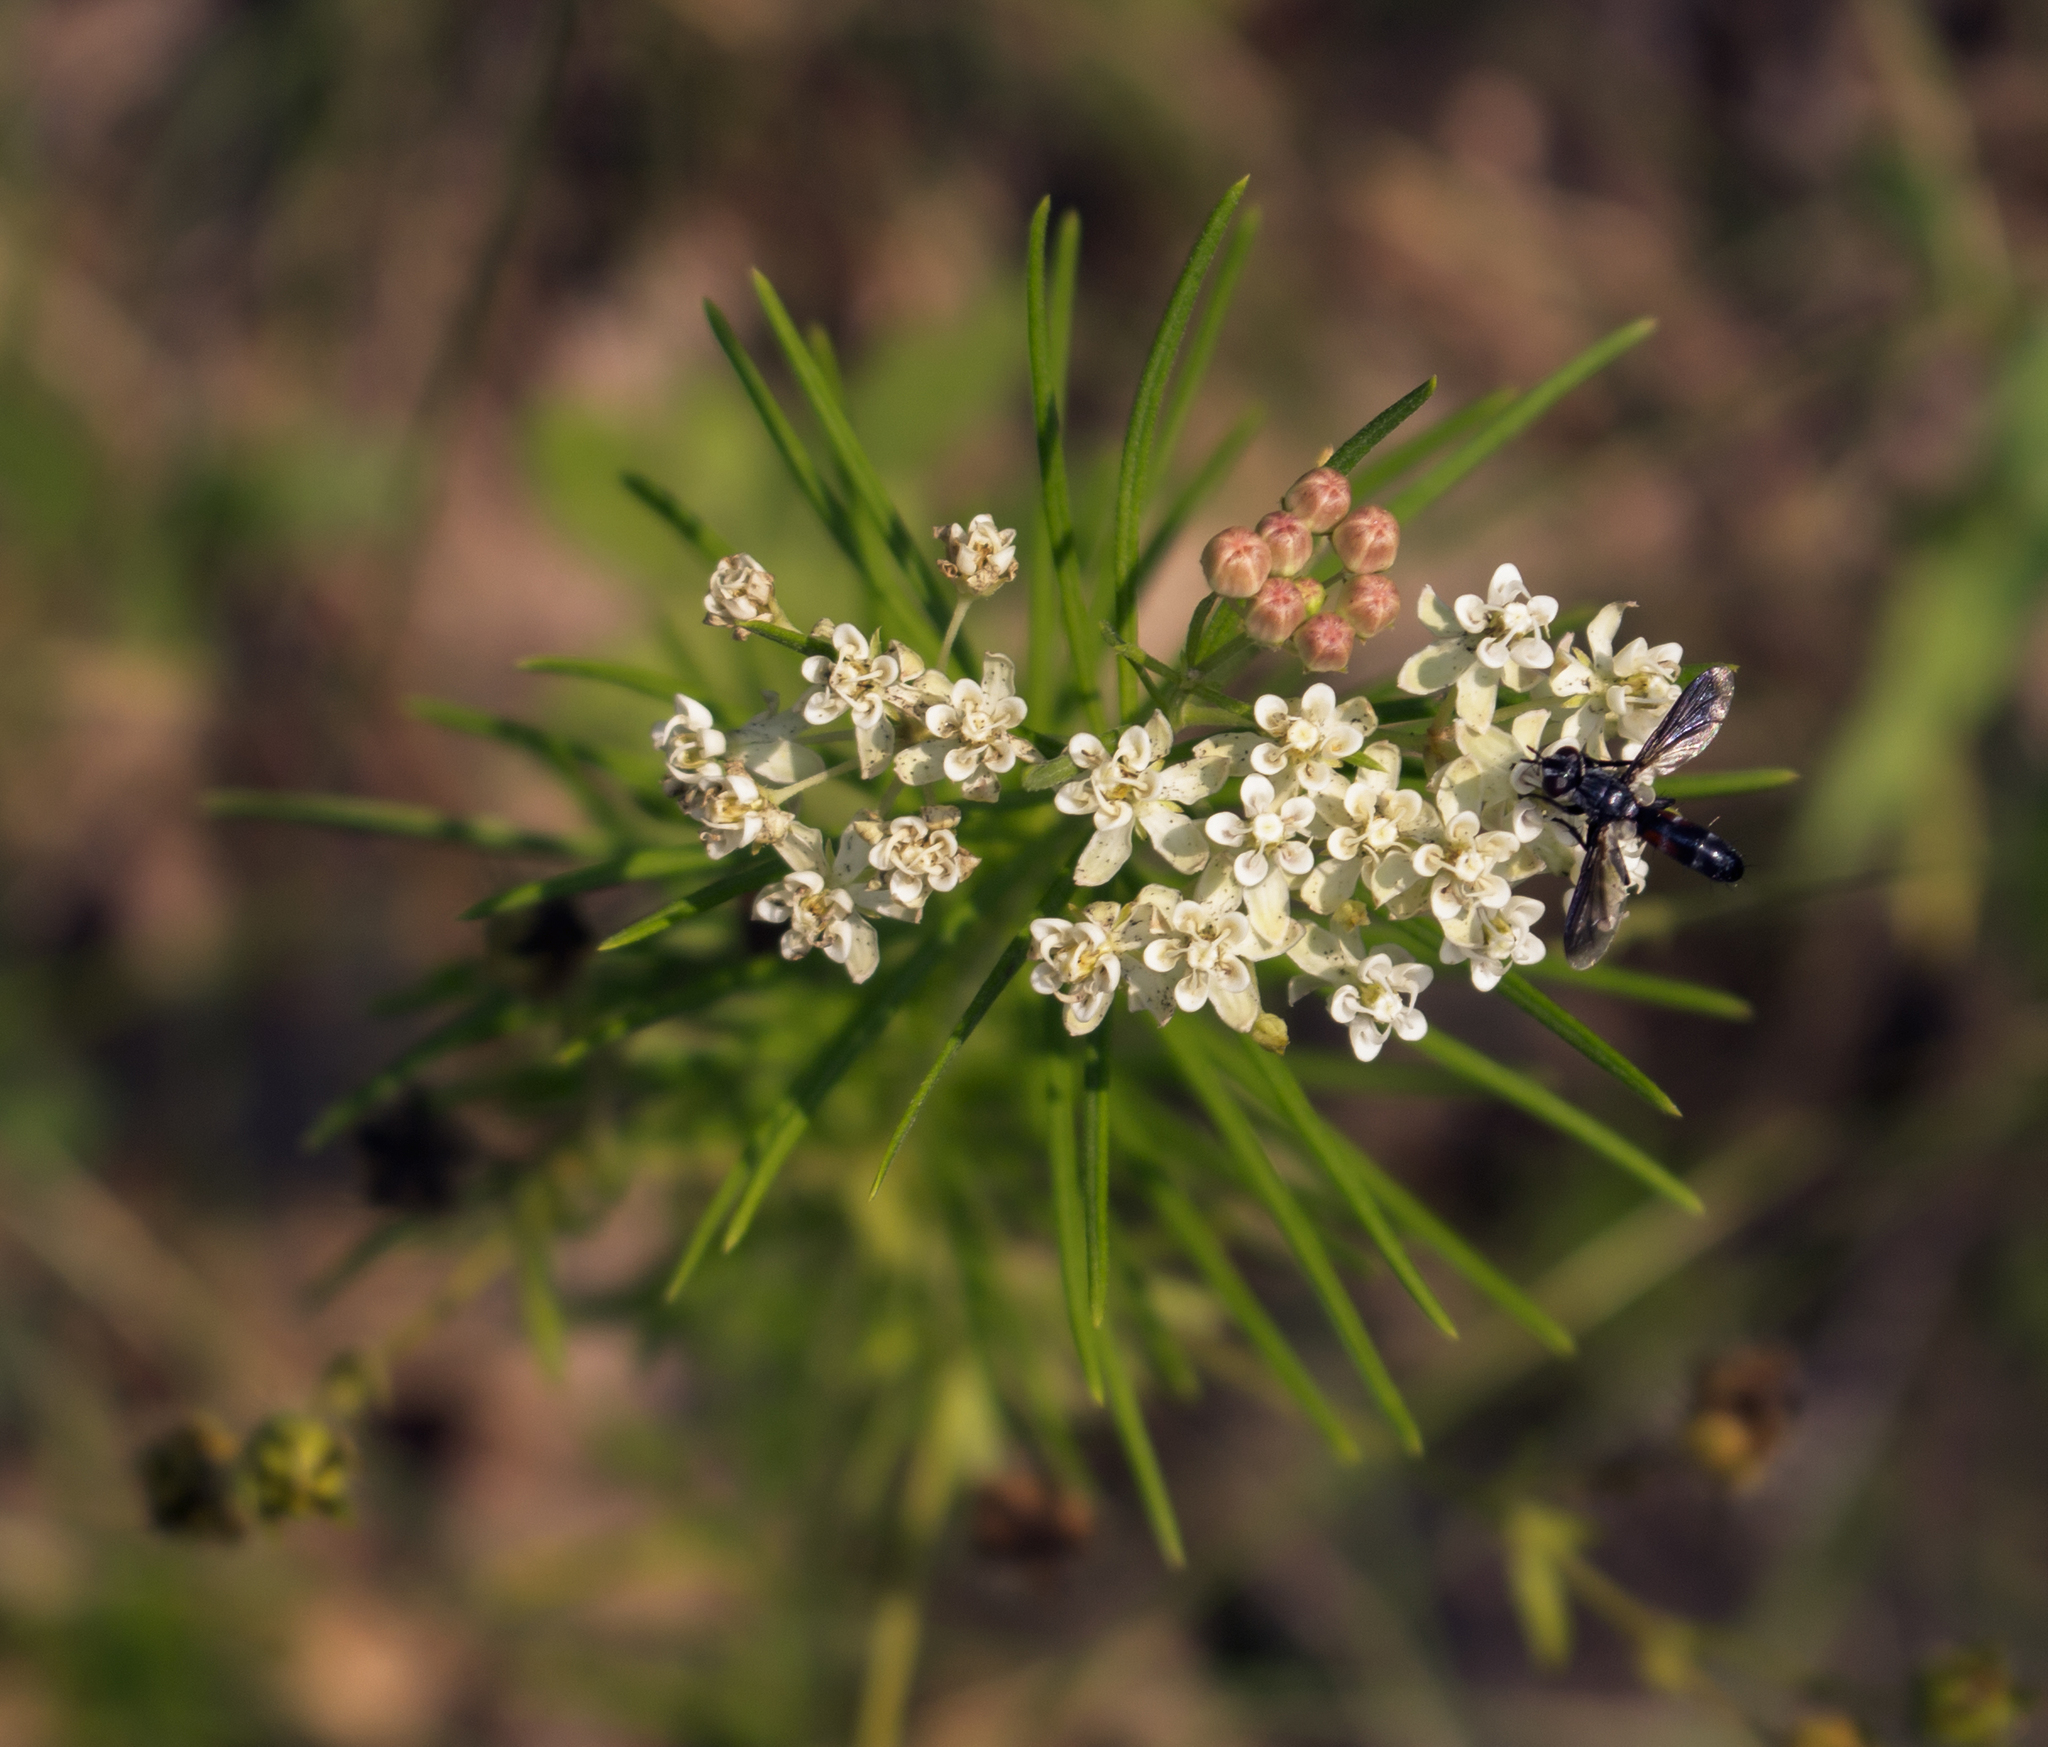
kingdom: Plantae
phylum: Tracheophyta
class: Magnoliopsida
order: Gentianales
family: Apocynaceae
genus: Asclepias
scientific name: Asclepias verticillata
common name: Eastern whorled milkweed
